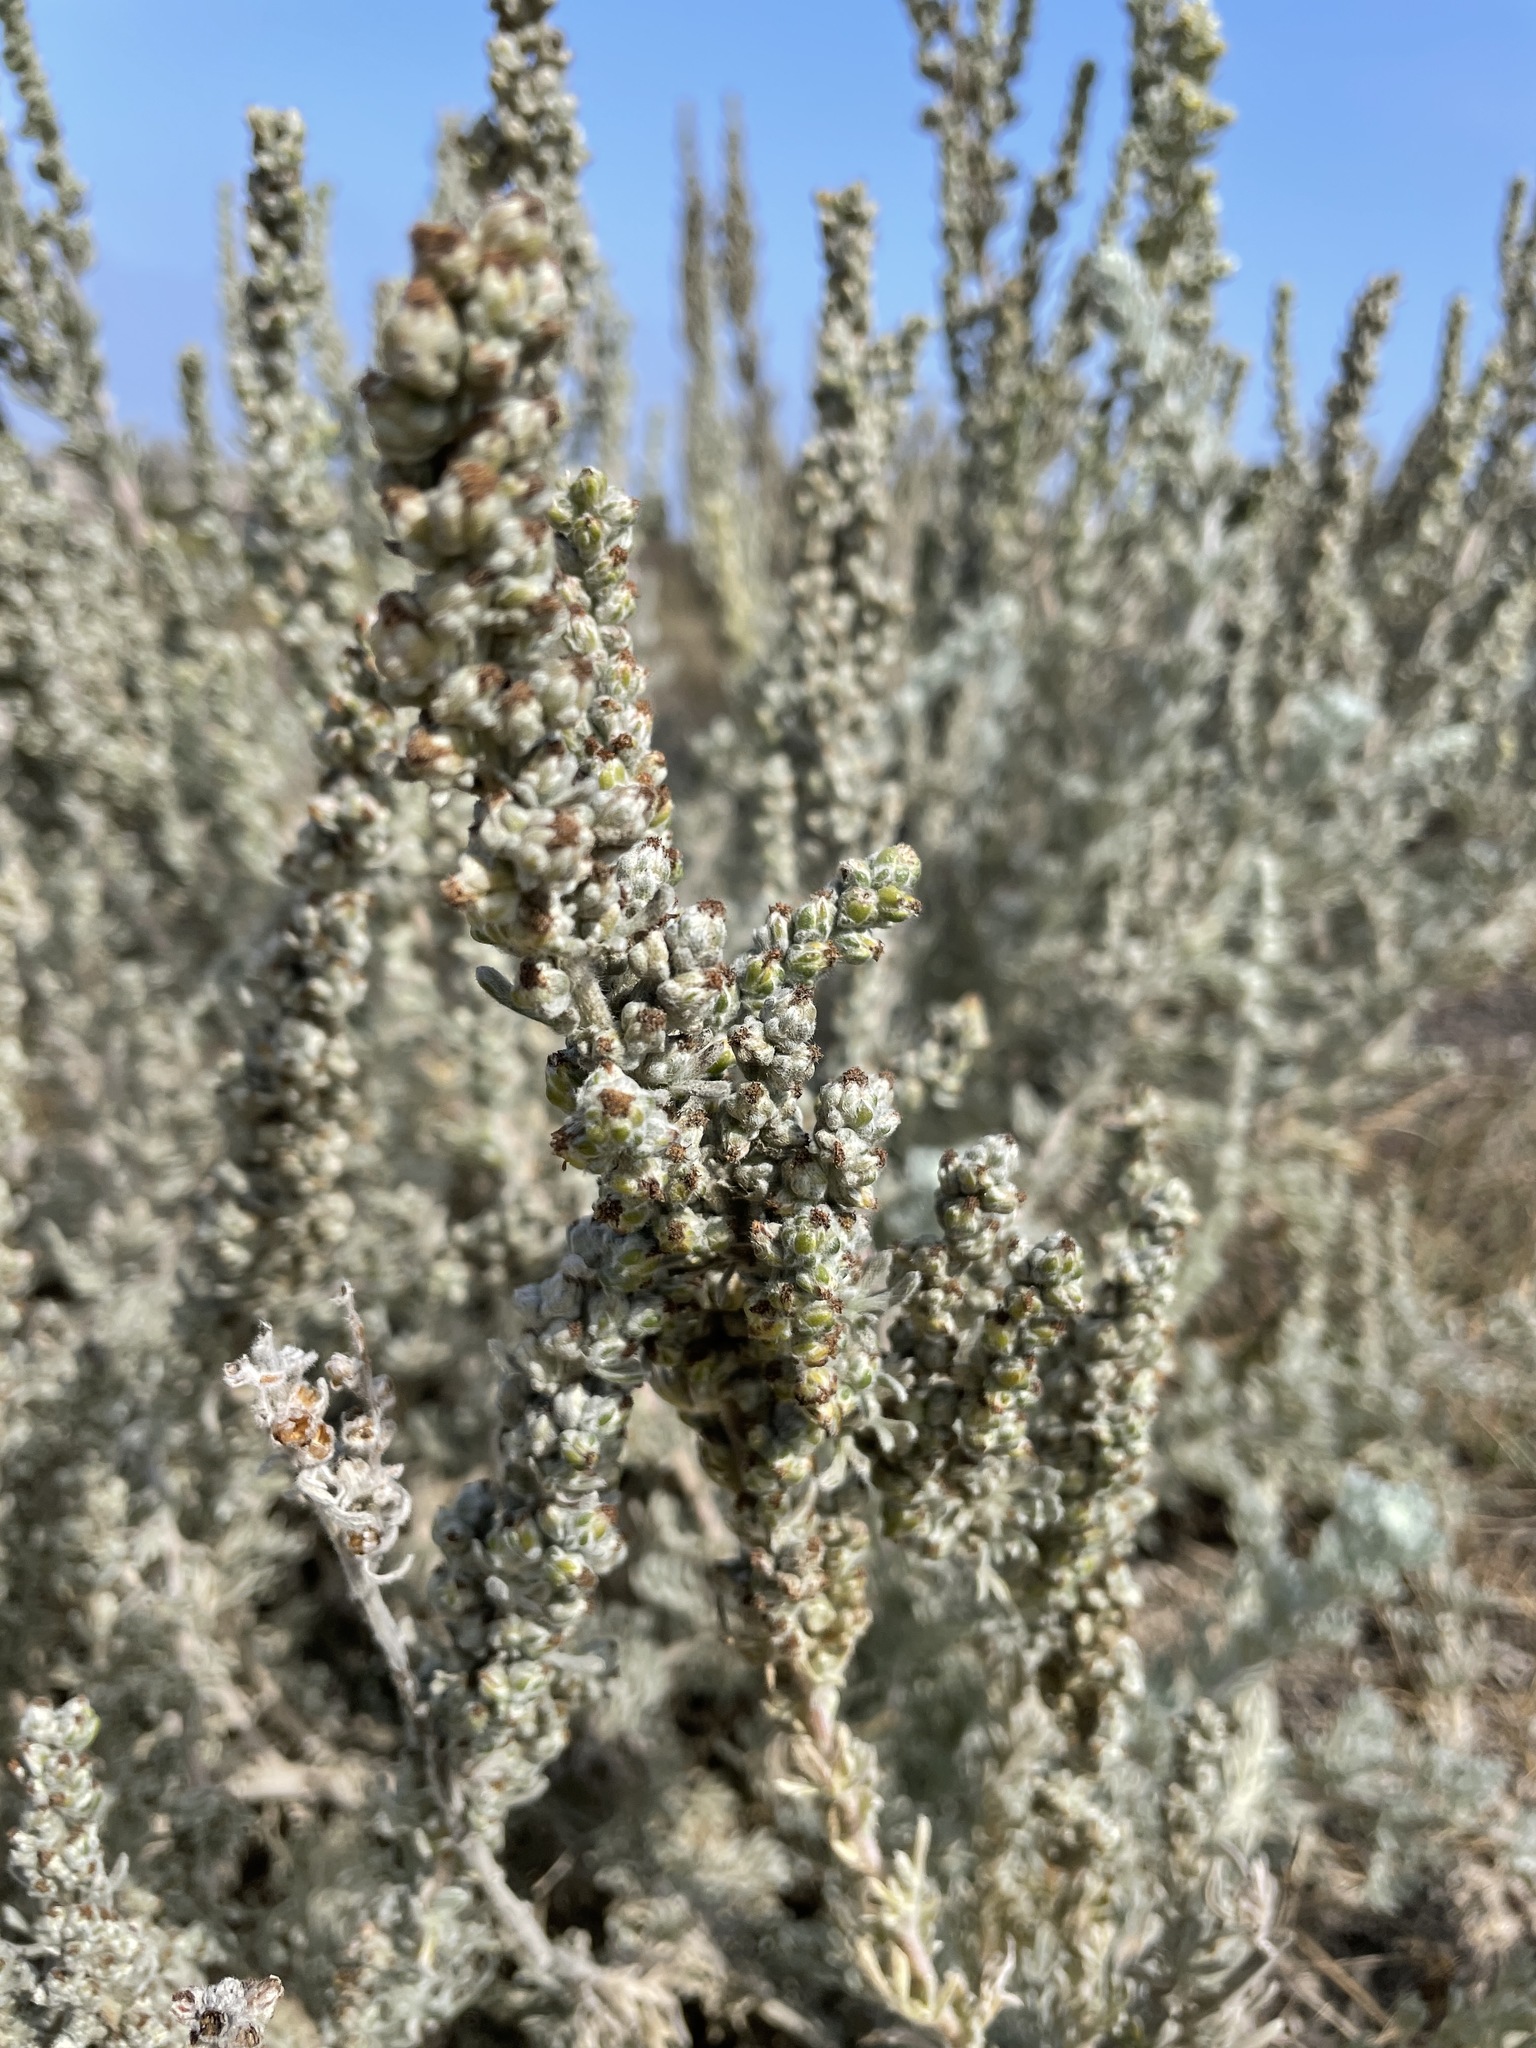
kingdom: Plantae
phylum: Tracheophyta
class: Magnoliopsida
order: Asterales
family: Asteraceae
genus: Artemisia
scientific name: Artemisia pycnocephala
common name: Coastal sagewort
